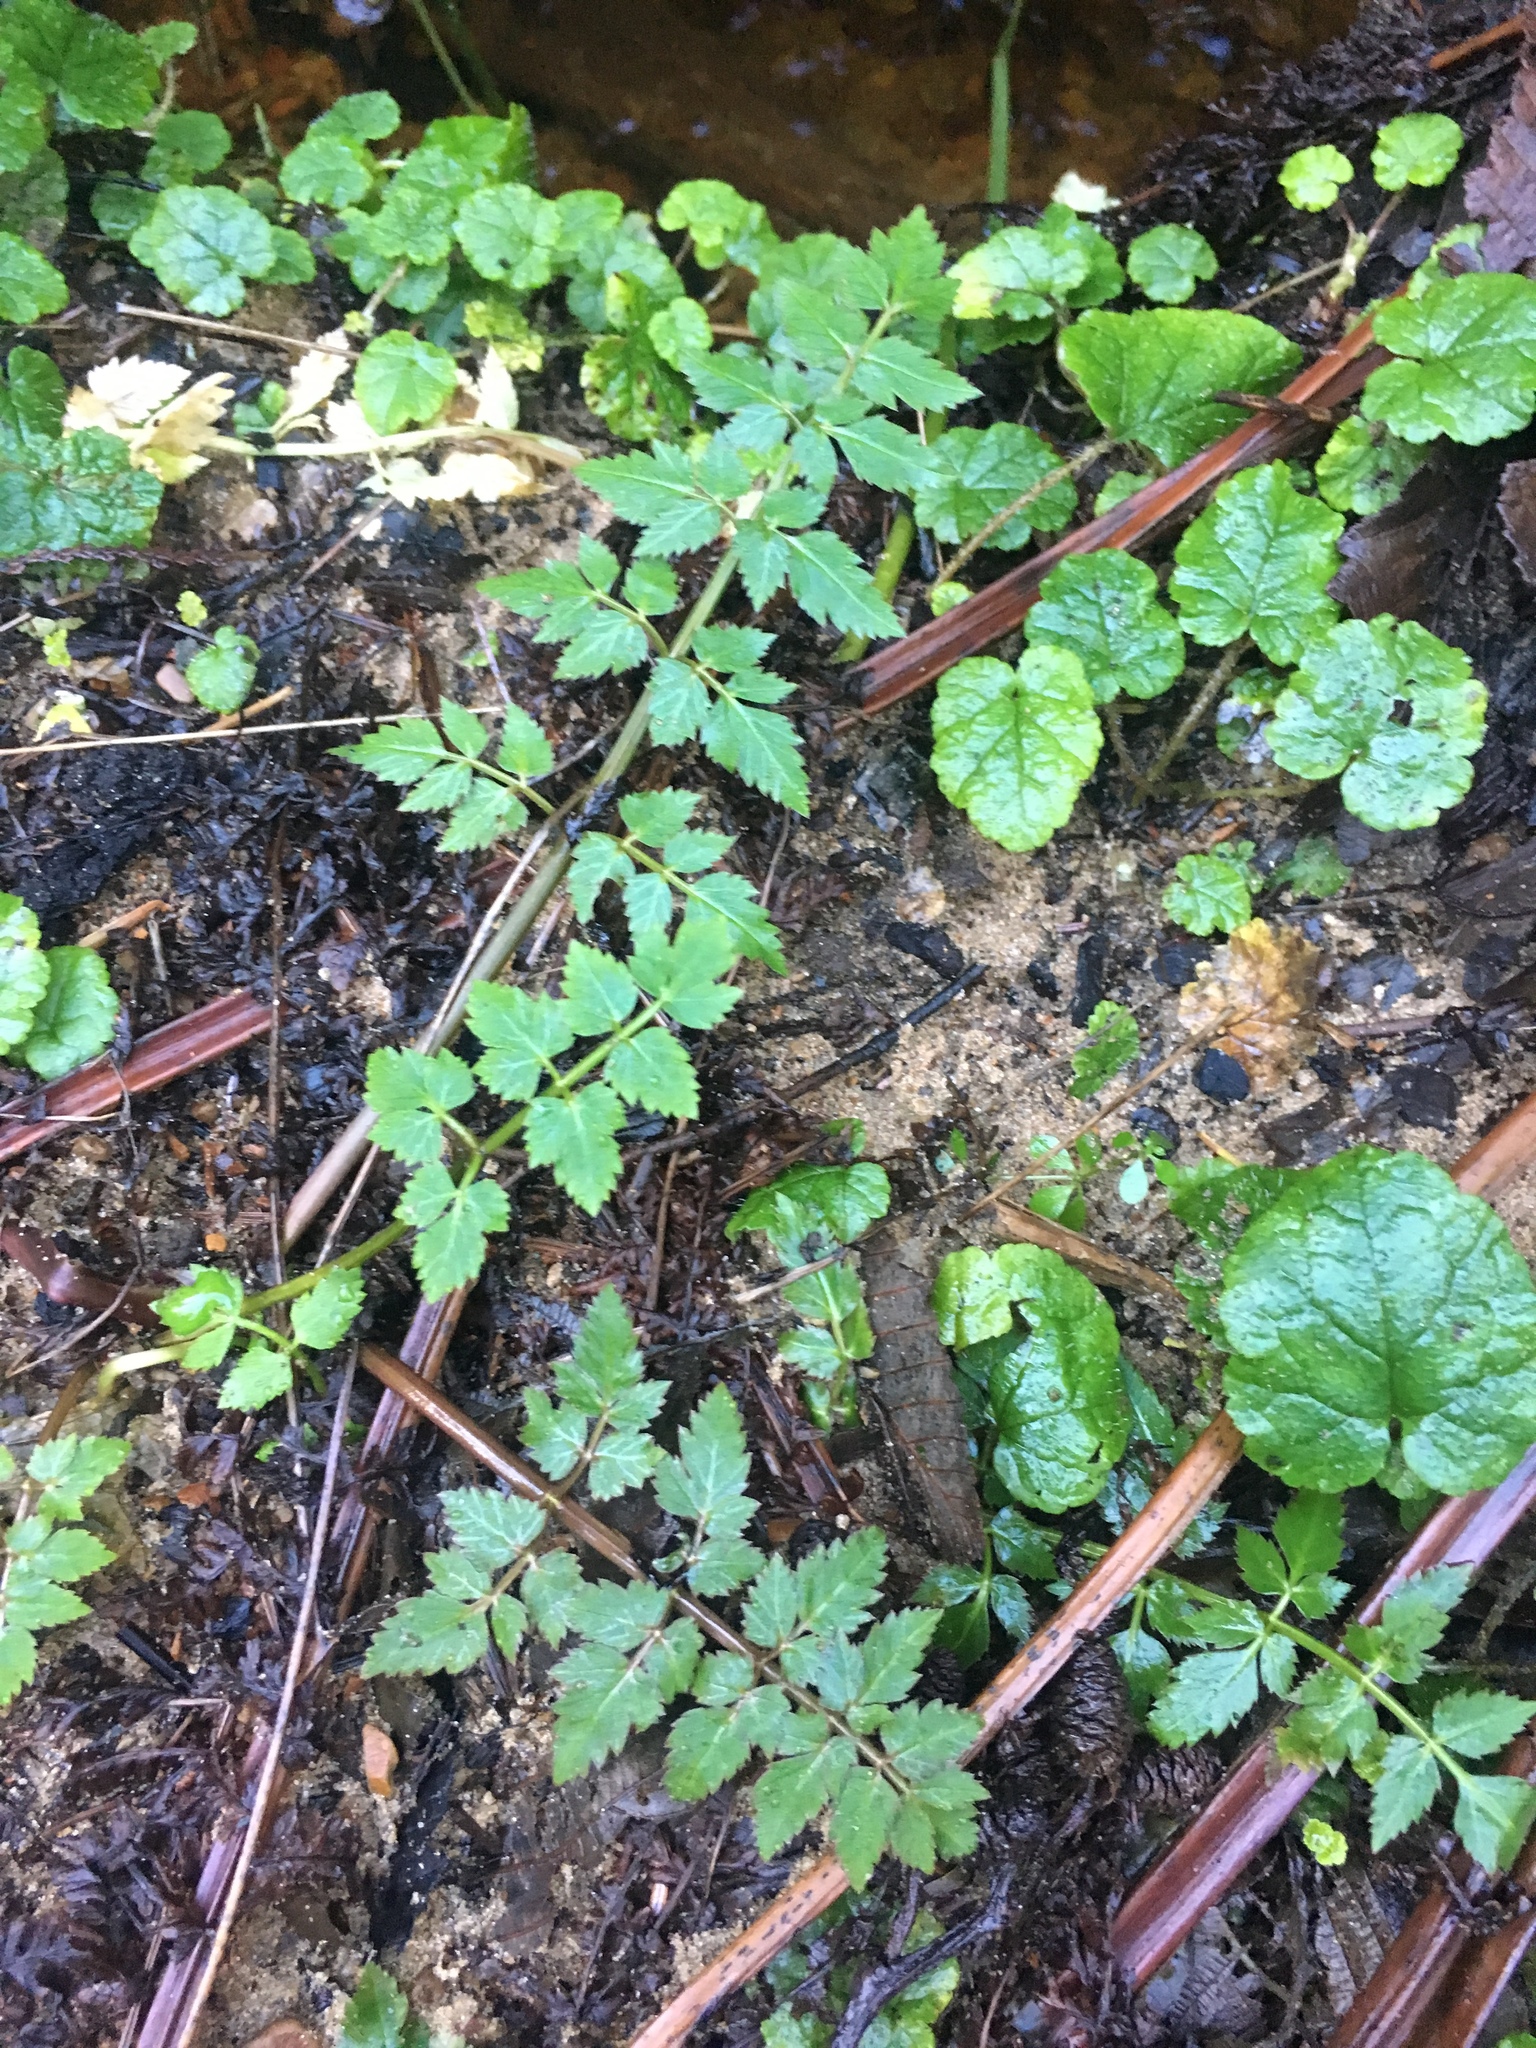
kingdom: Plantae
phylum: Tracheophyta
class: Magnoliopsida
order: Apiales
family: Apiaceae
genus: Oenanthe
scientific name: Oenanthe sarmentosa
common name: American water-parsley
